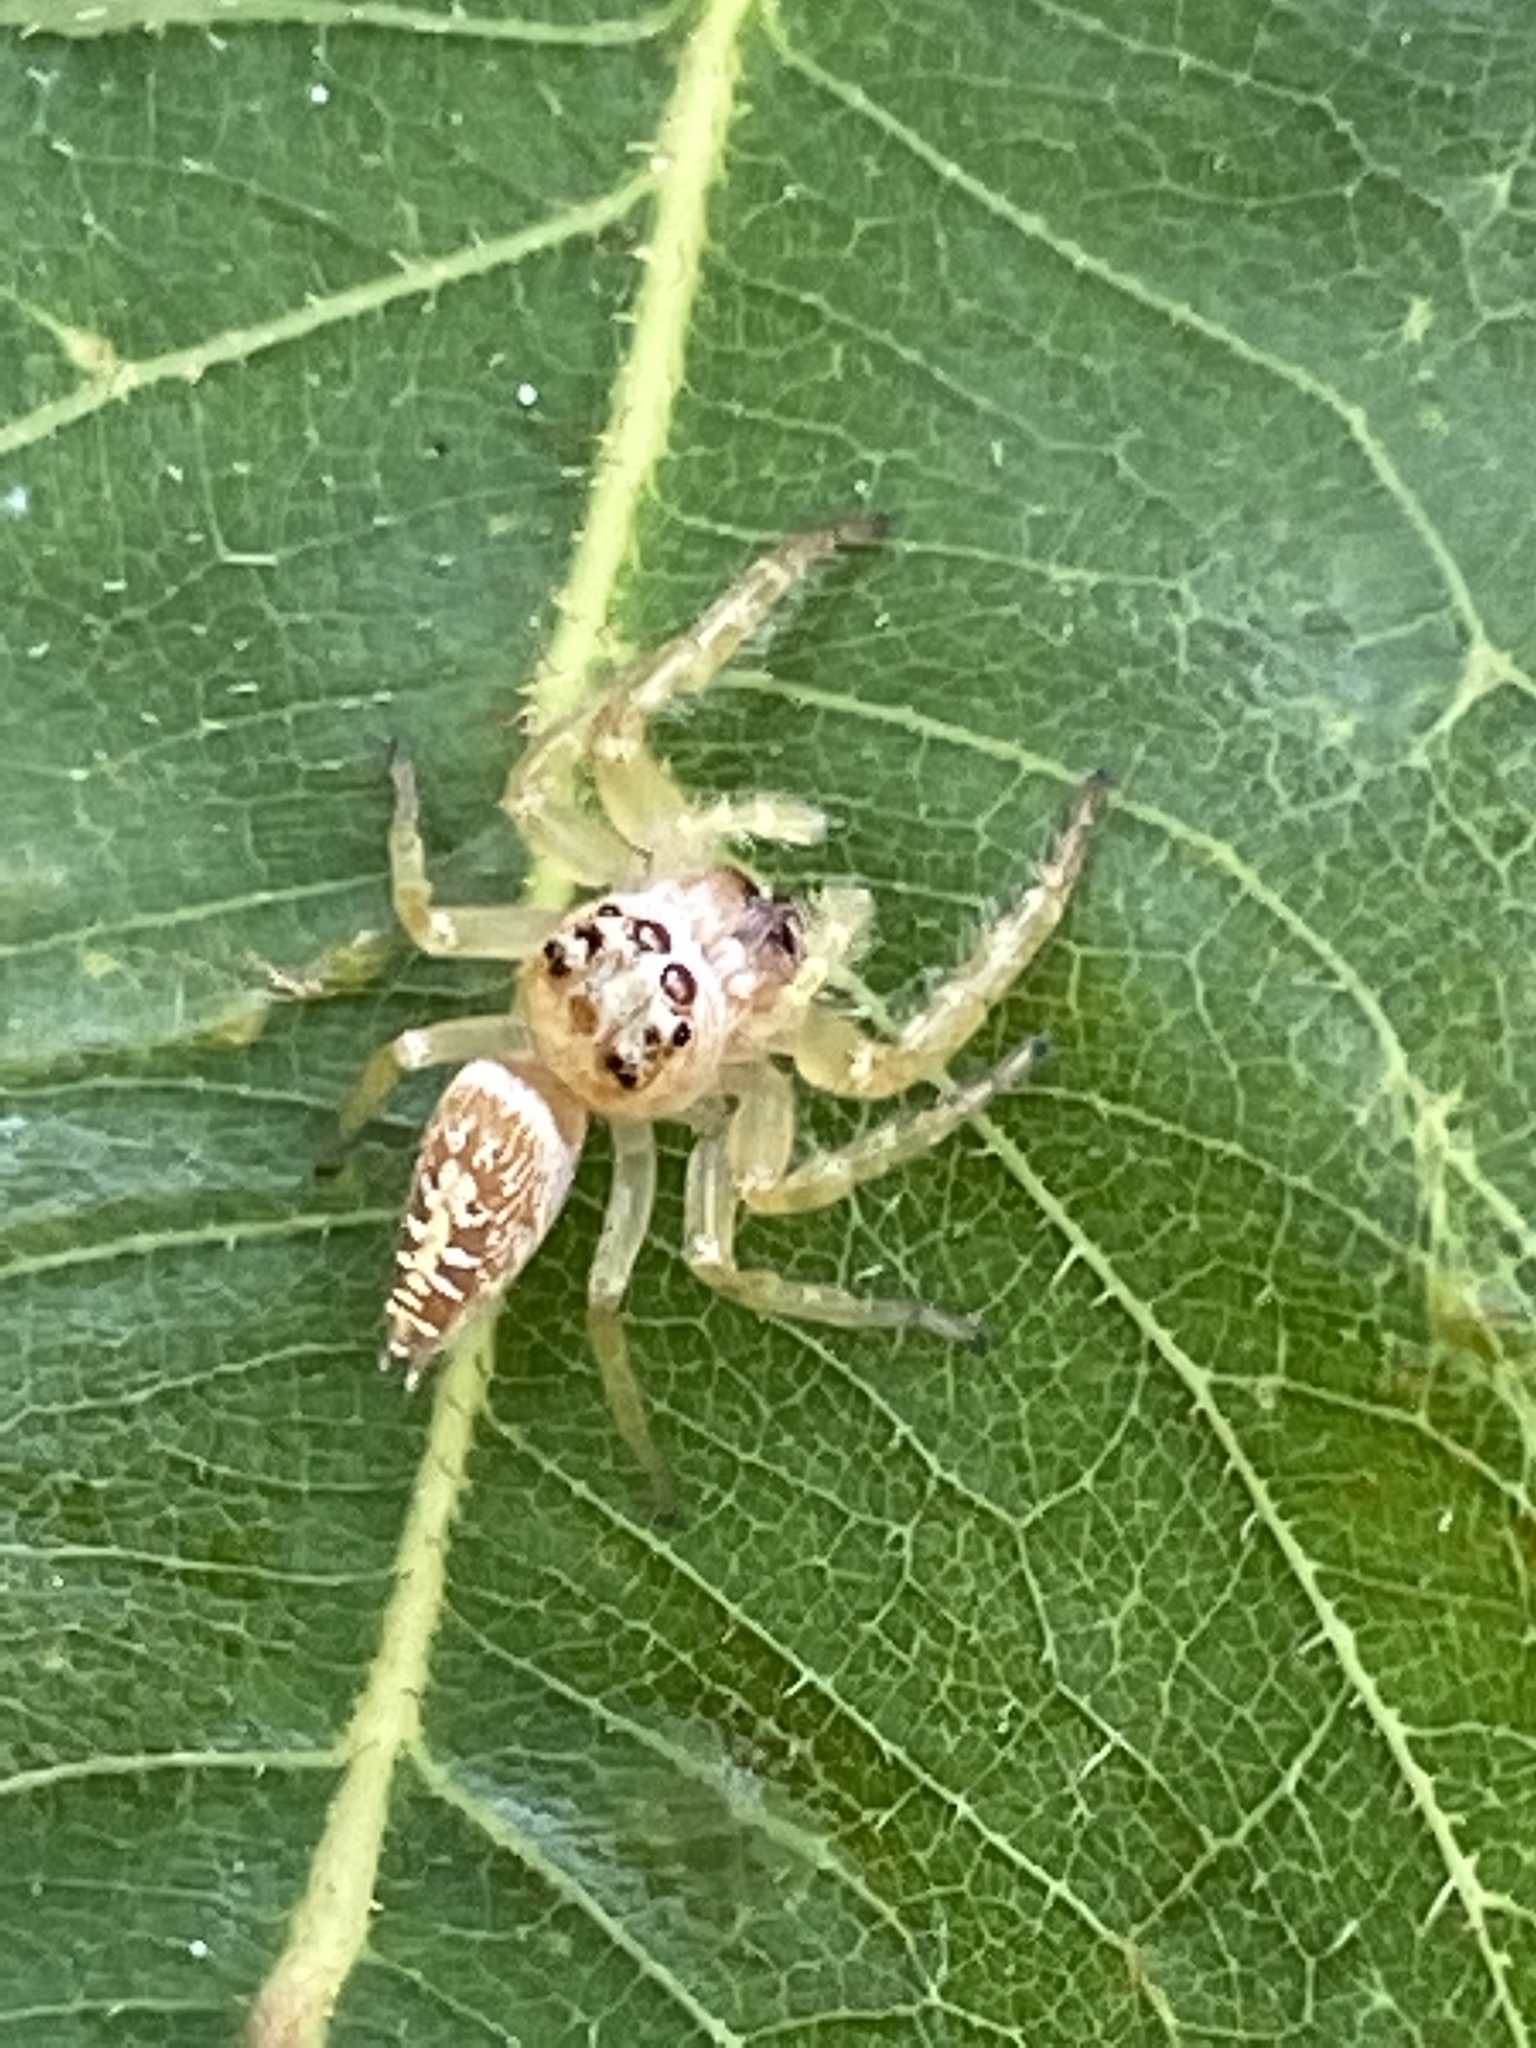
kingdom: Animalia
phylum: Arthropoda
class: Arachnida
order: Araneae
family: Salticidae
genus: Opisthoncus
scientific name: Opisthoncus quadratarius
